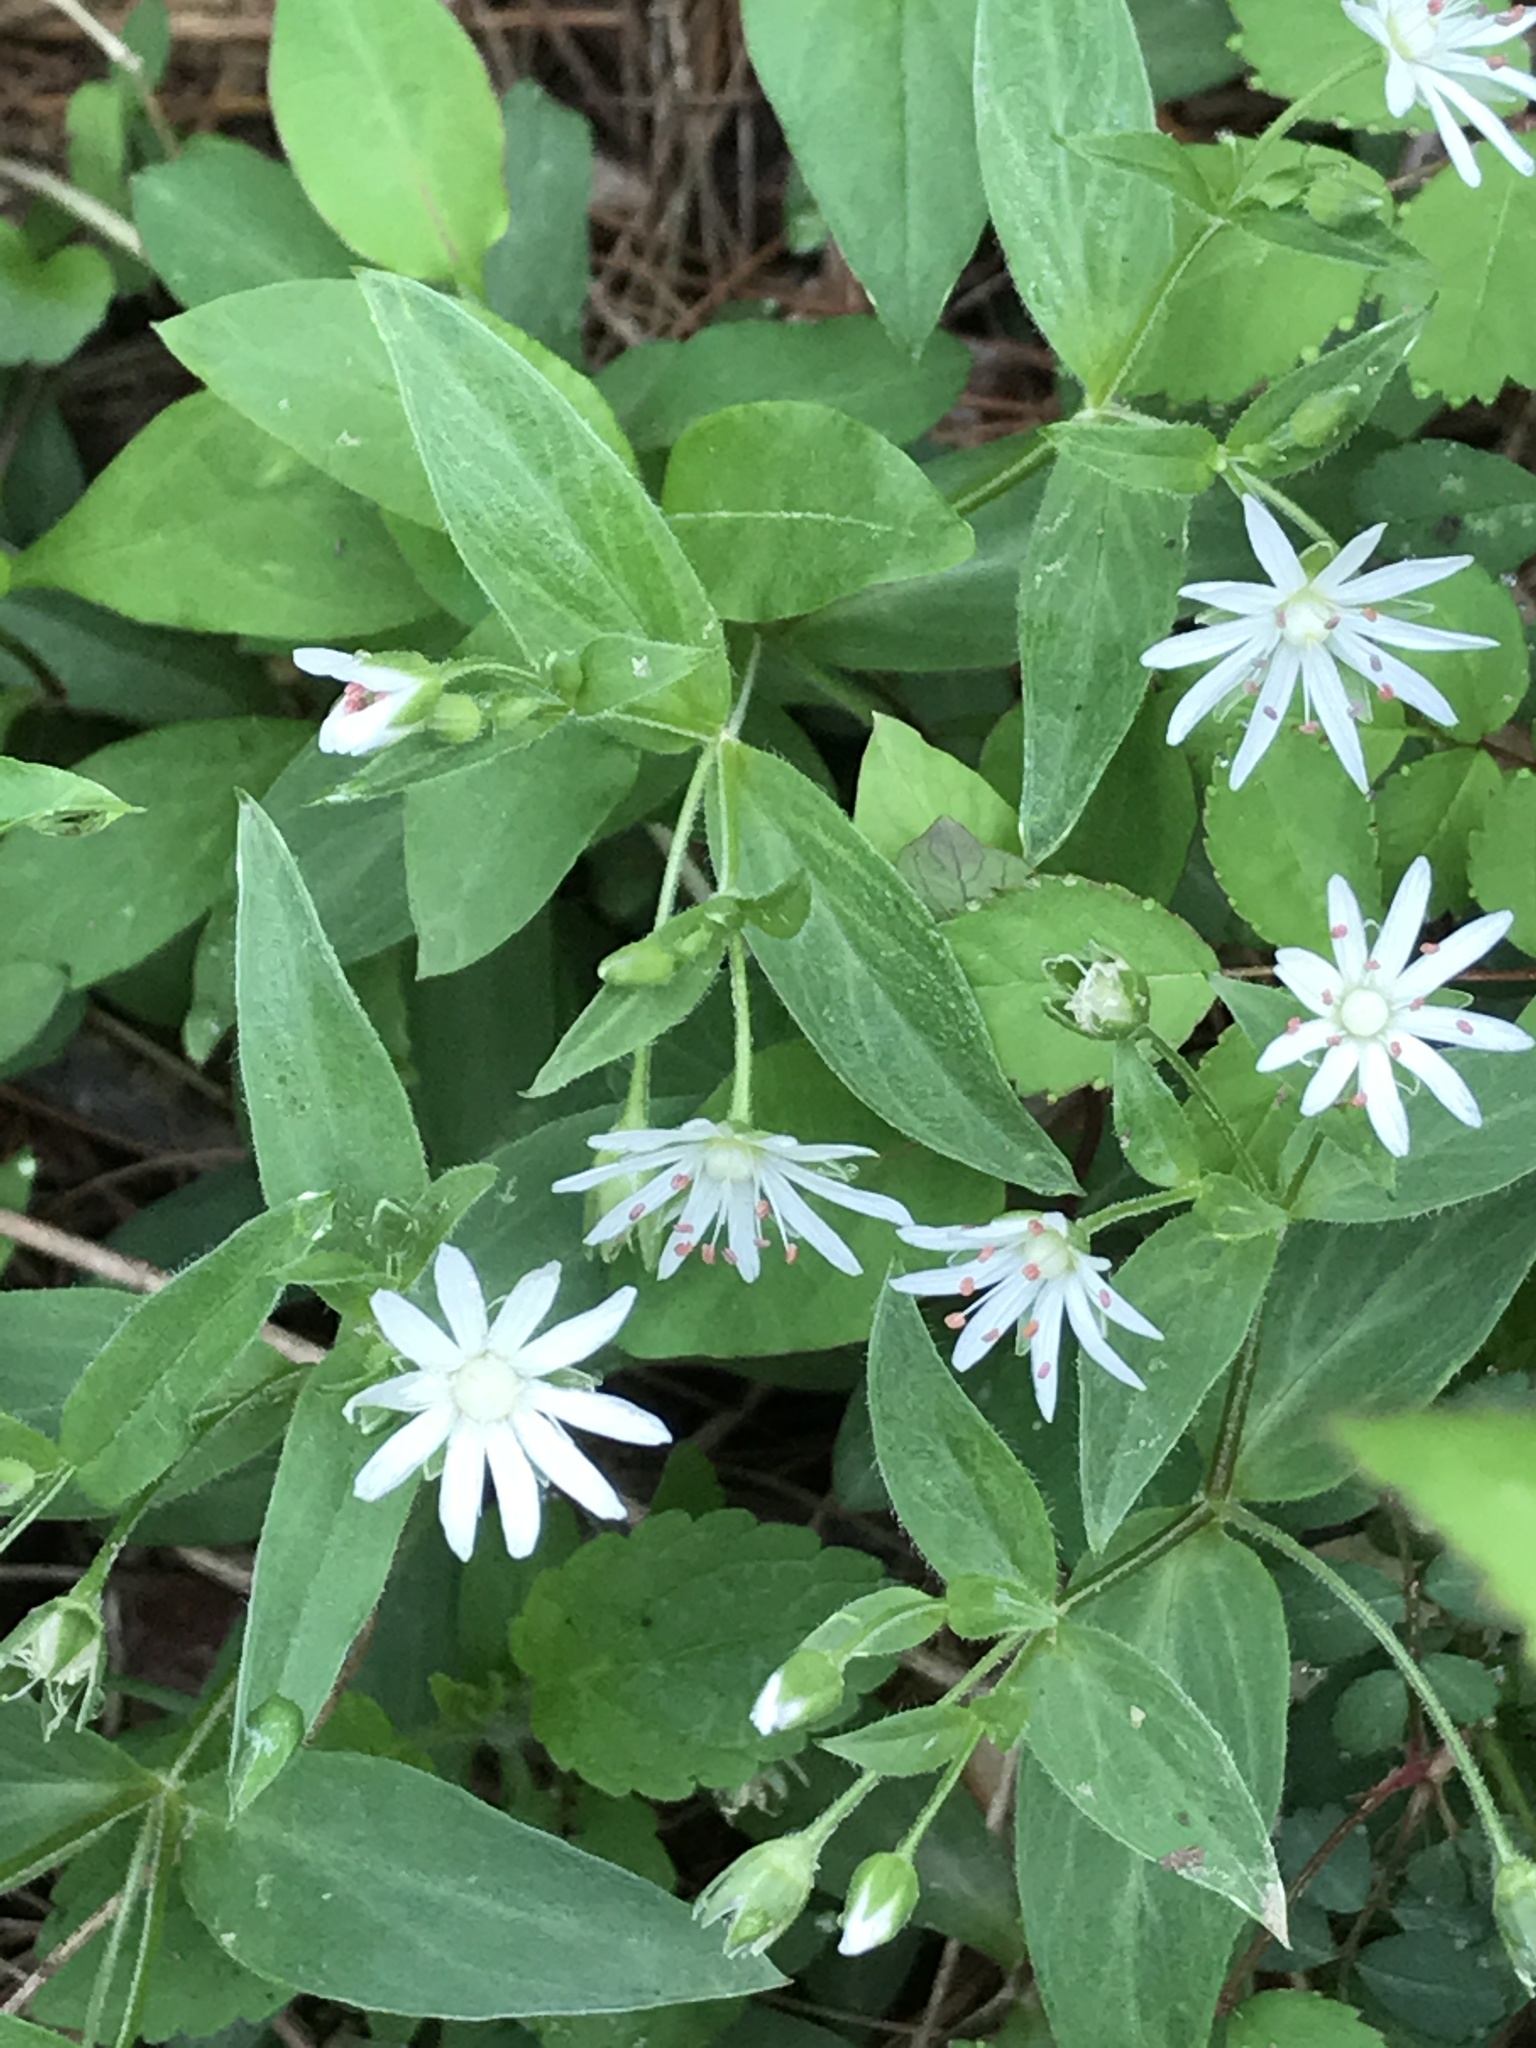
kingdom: Plantae
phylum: Tracheophyta
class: Magnoliopsida
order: Caryophyllales
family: Caryophyllaceae
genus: Stellaria
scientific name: Stellaria pubera
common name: Star chickweed
